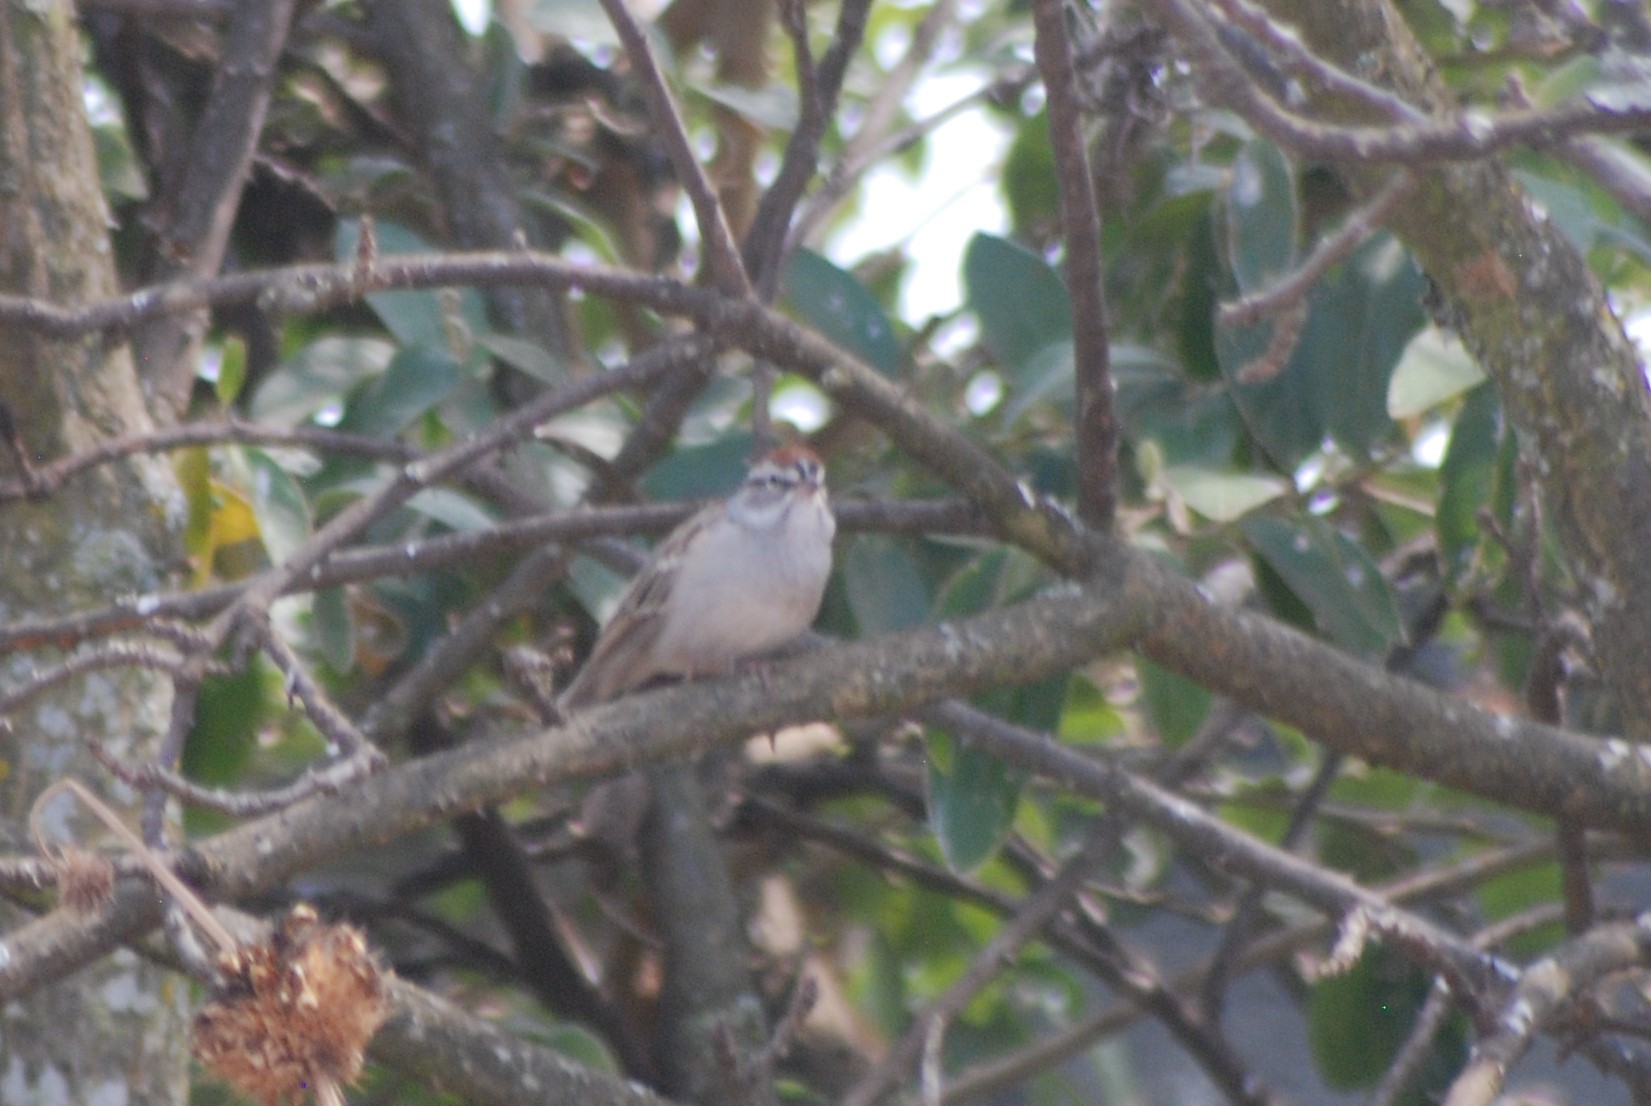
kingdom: Animalia
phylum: Chordata
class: Aves
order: Passeriformes
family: Passerellidae
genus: Spizella
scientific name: Spizella passerina
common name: Chipping sparrow
